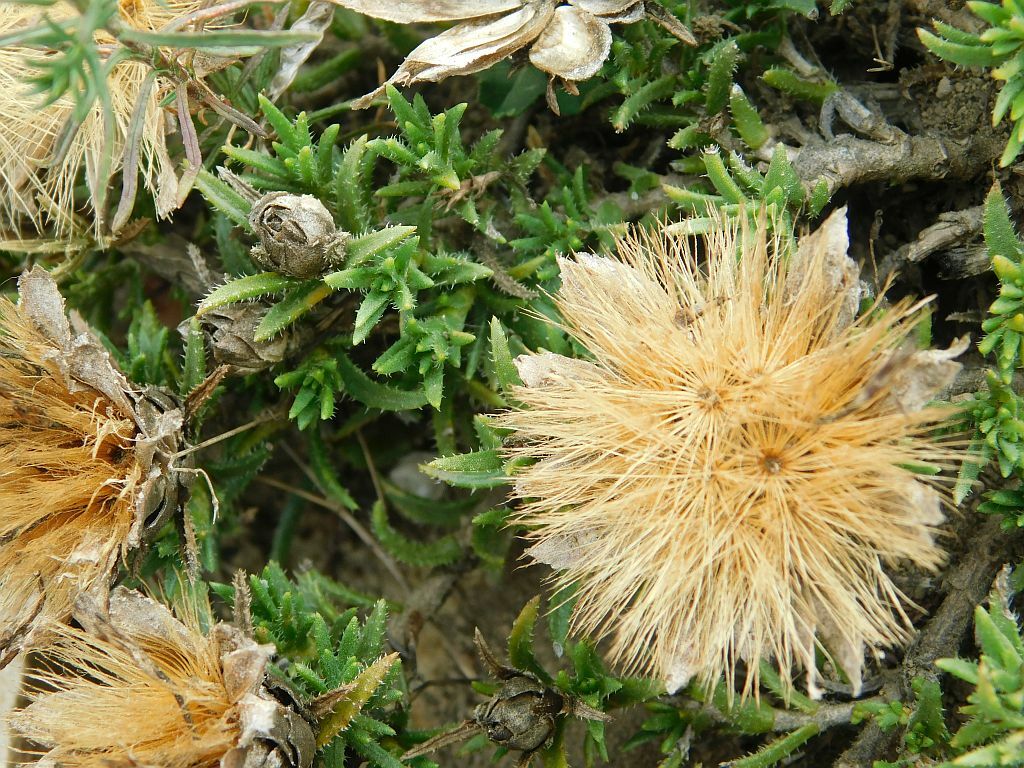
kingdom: Plantae
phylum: Tracheophyta
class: Magnoliopsida
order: Asterales
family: Asteraceae
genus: Pteronia
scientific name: Pteronia hirsuta
